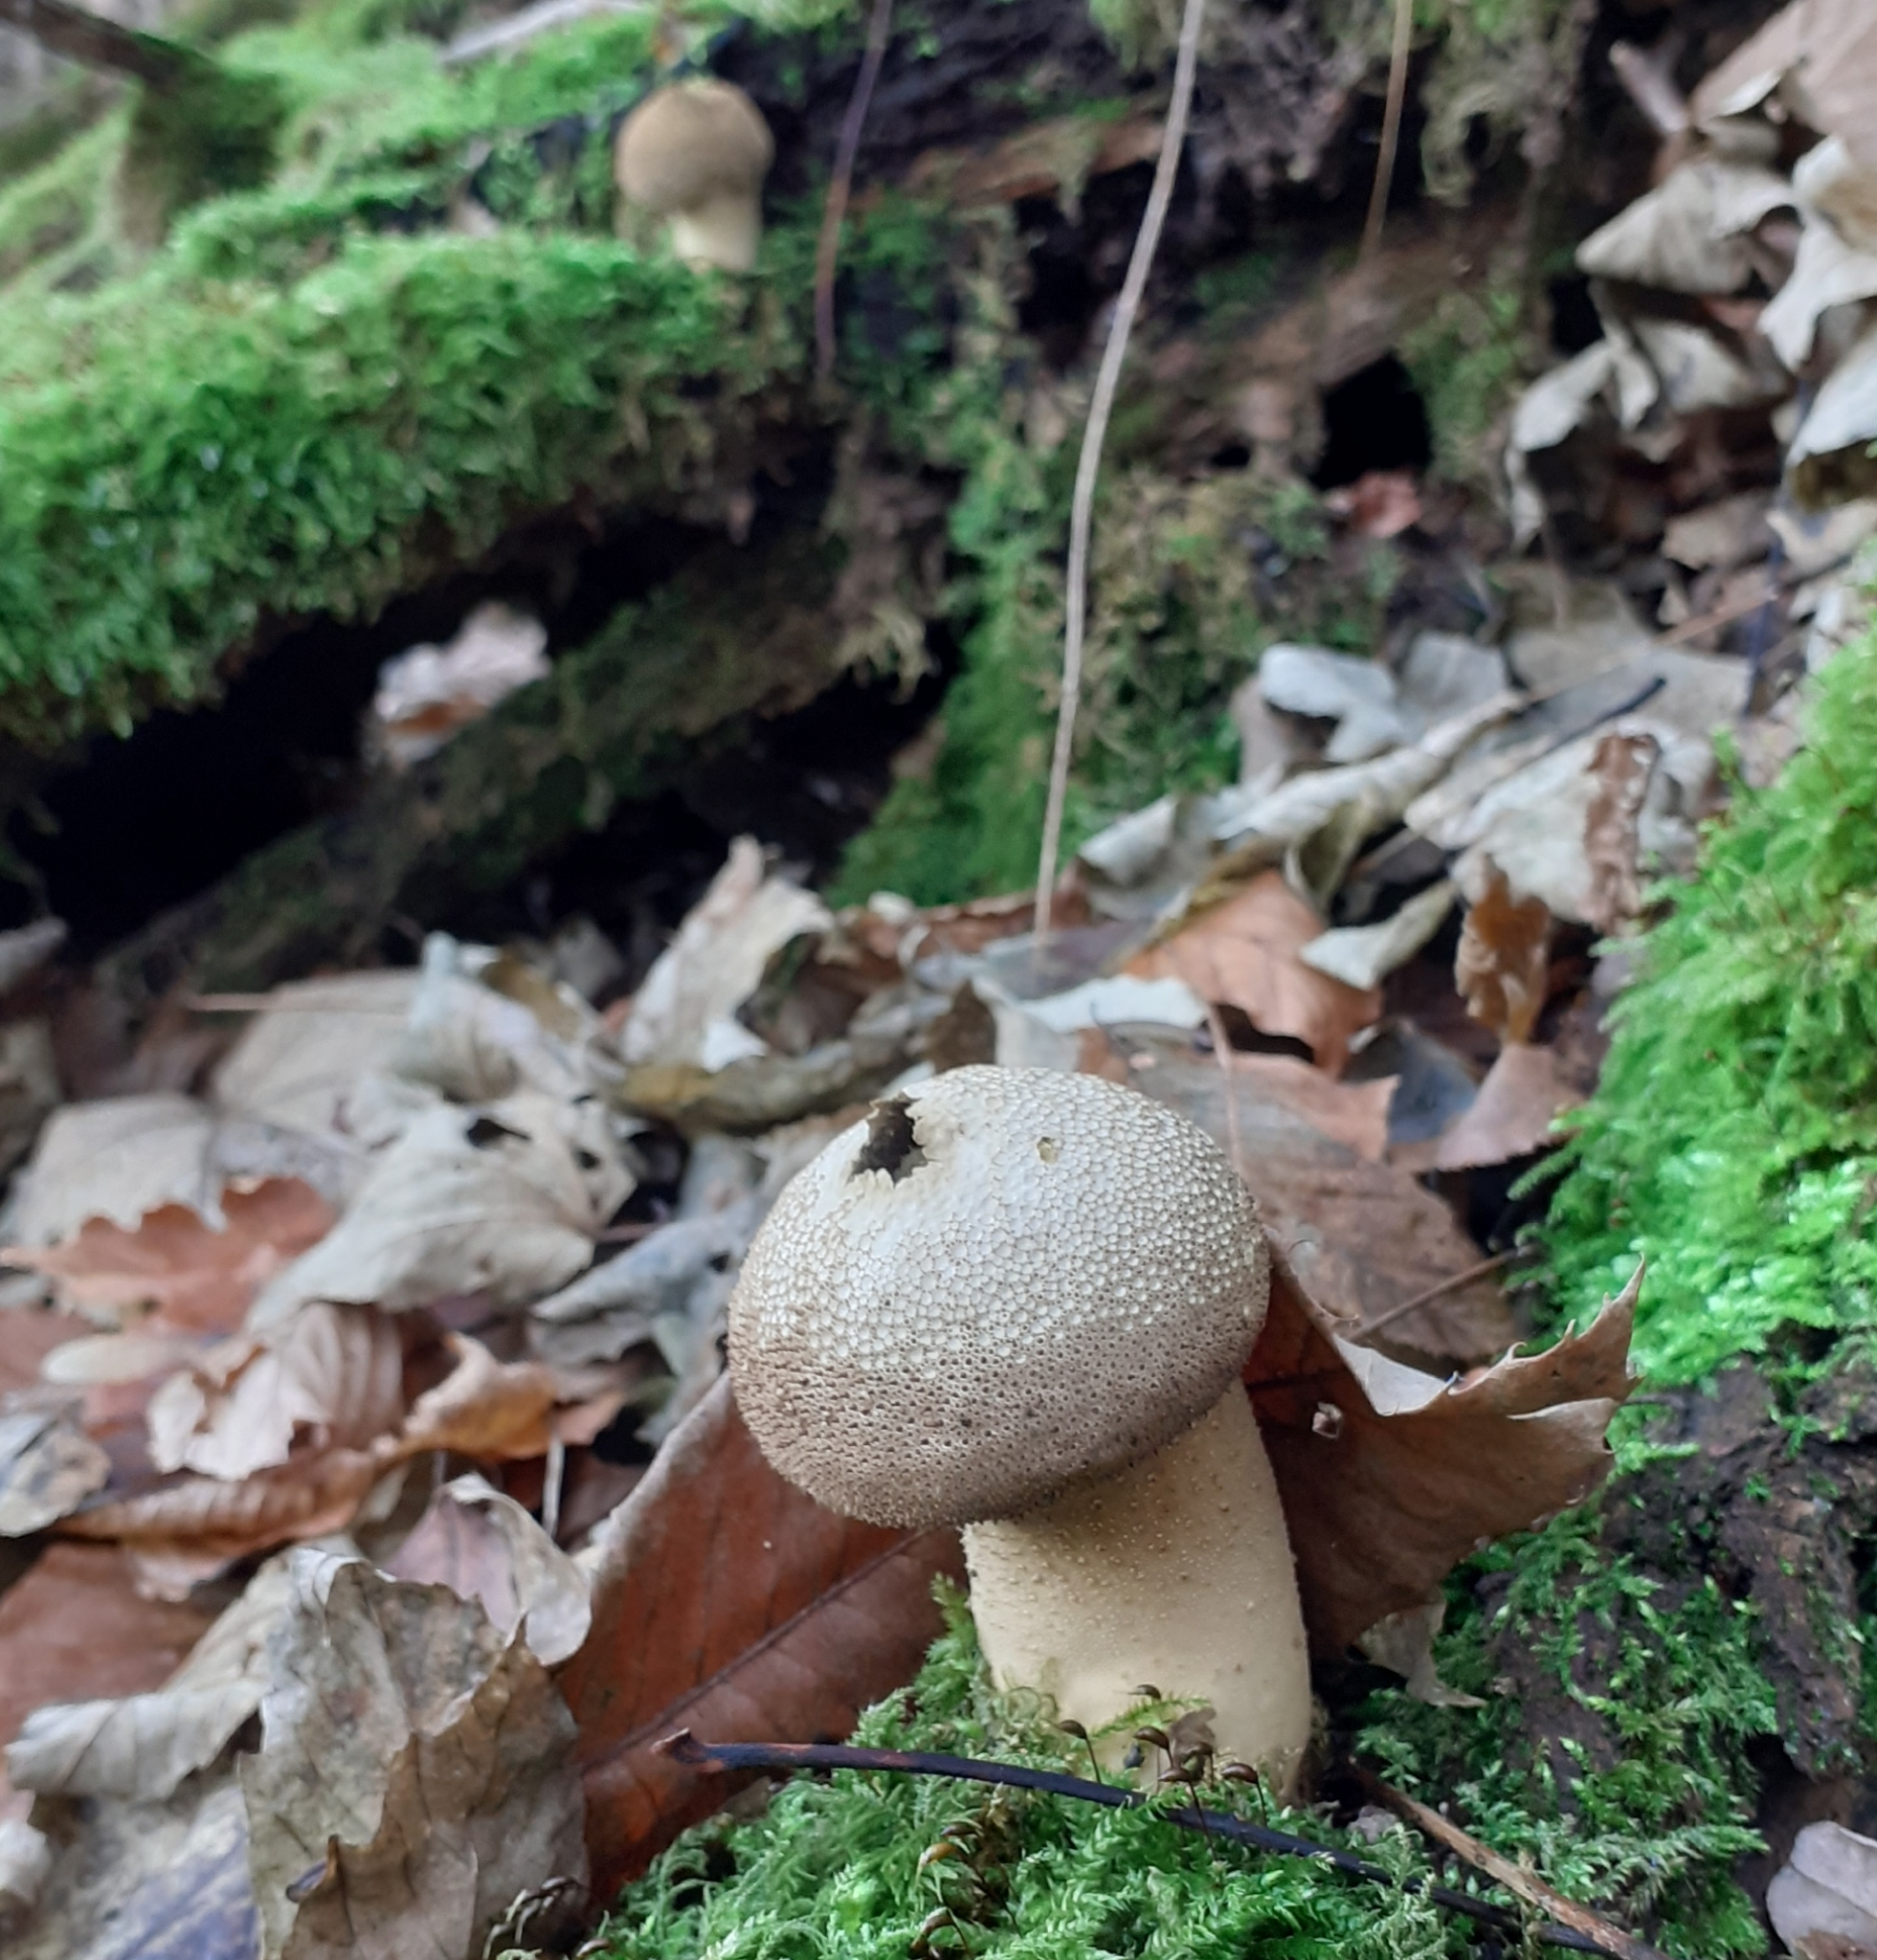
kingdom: Fungi
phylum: Basidiomycota
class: Agaricomycetes
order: Agaricales
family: Lycoperdaceae
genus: Lycoperdon
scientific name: Lycoperdon perlatum
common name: Common puffball
